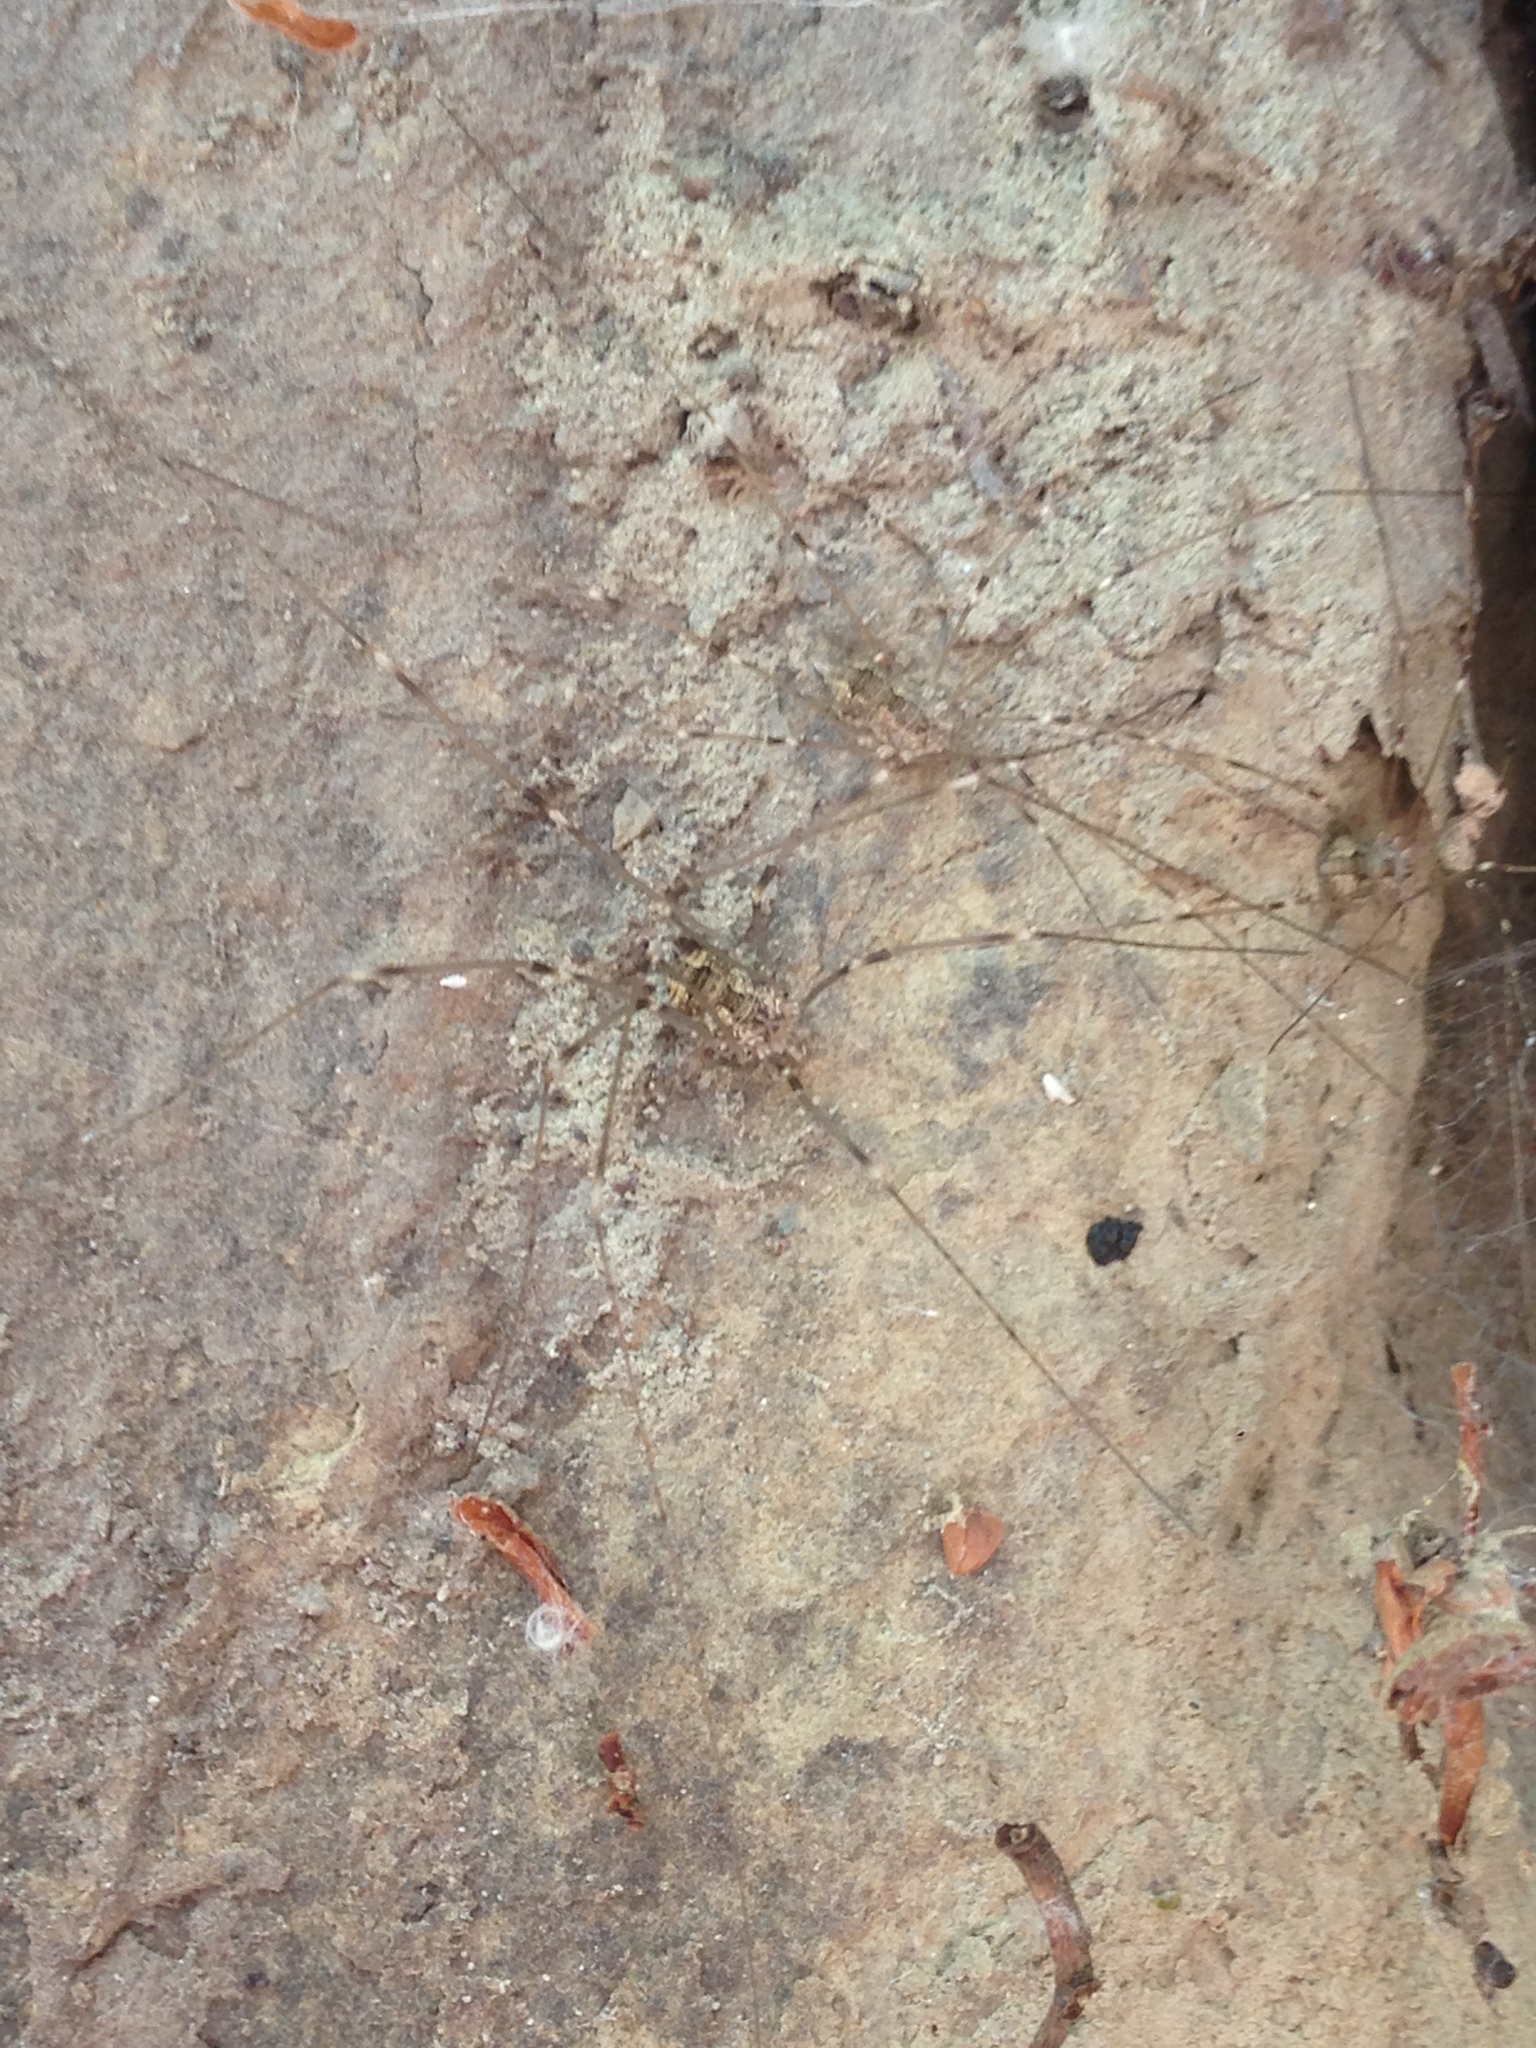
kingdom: Animalia
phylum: Arthropoda
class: Arachnida
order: Opiliones
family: Sclerosomatidae
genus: Leuronychus
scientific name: Leuronychus pacificus
